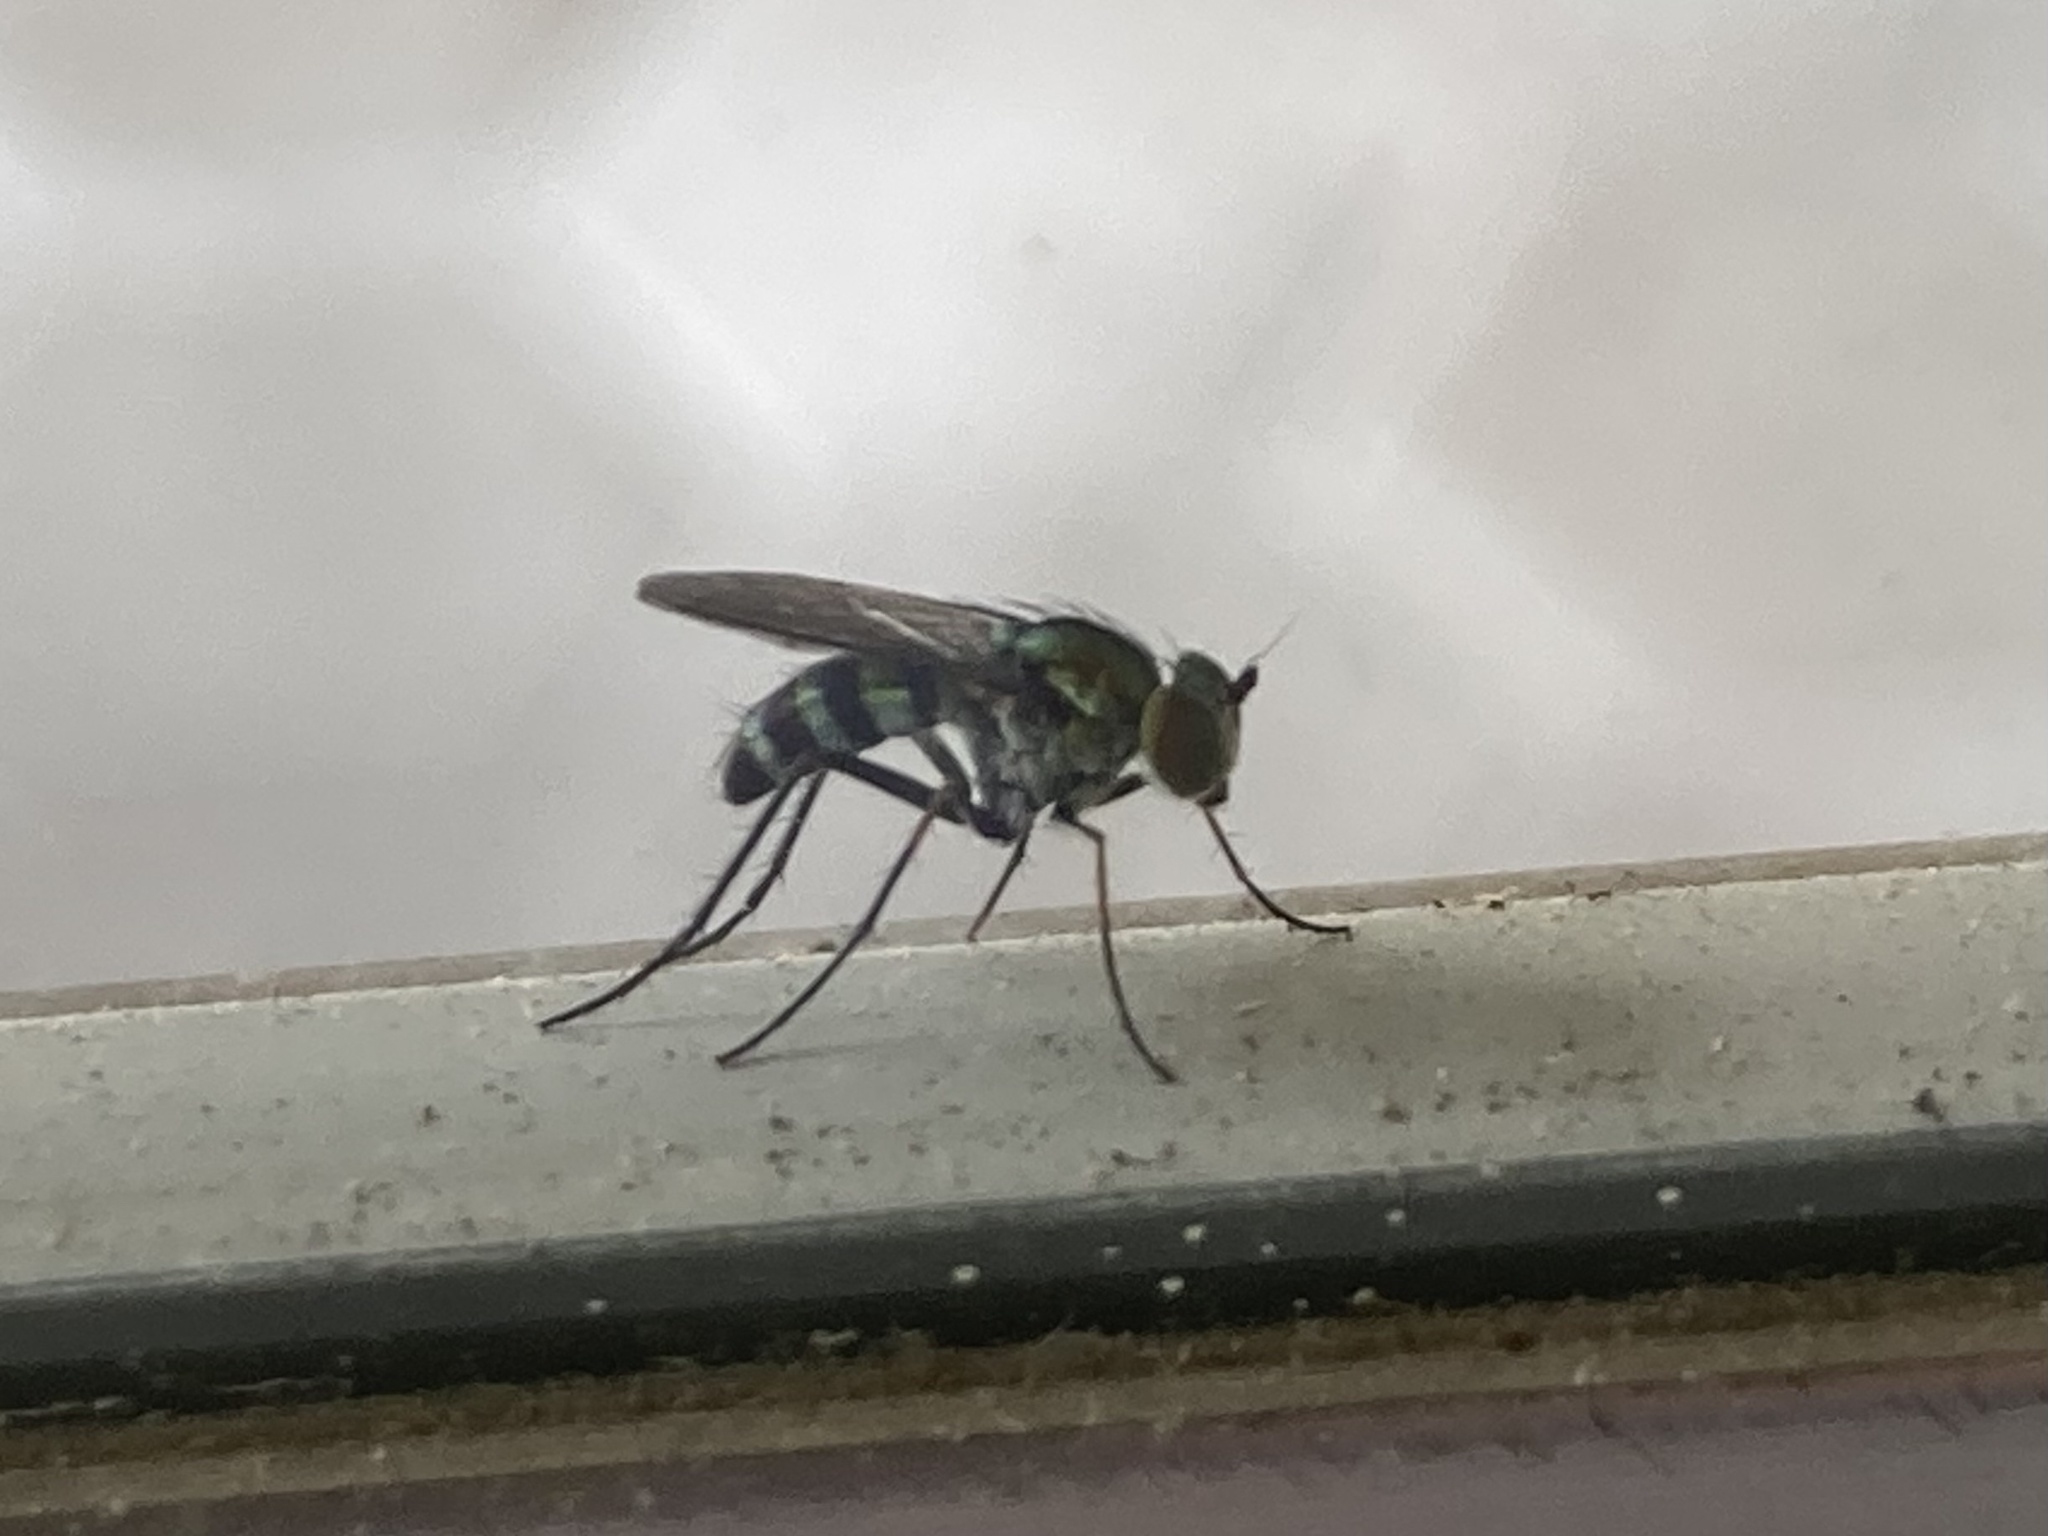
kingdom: Animalia
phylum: Arthropoda
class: Insecta
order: Diptera
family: Dolichopodidae
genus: Plagioneurus
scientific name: Plagioneurus univittatus
